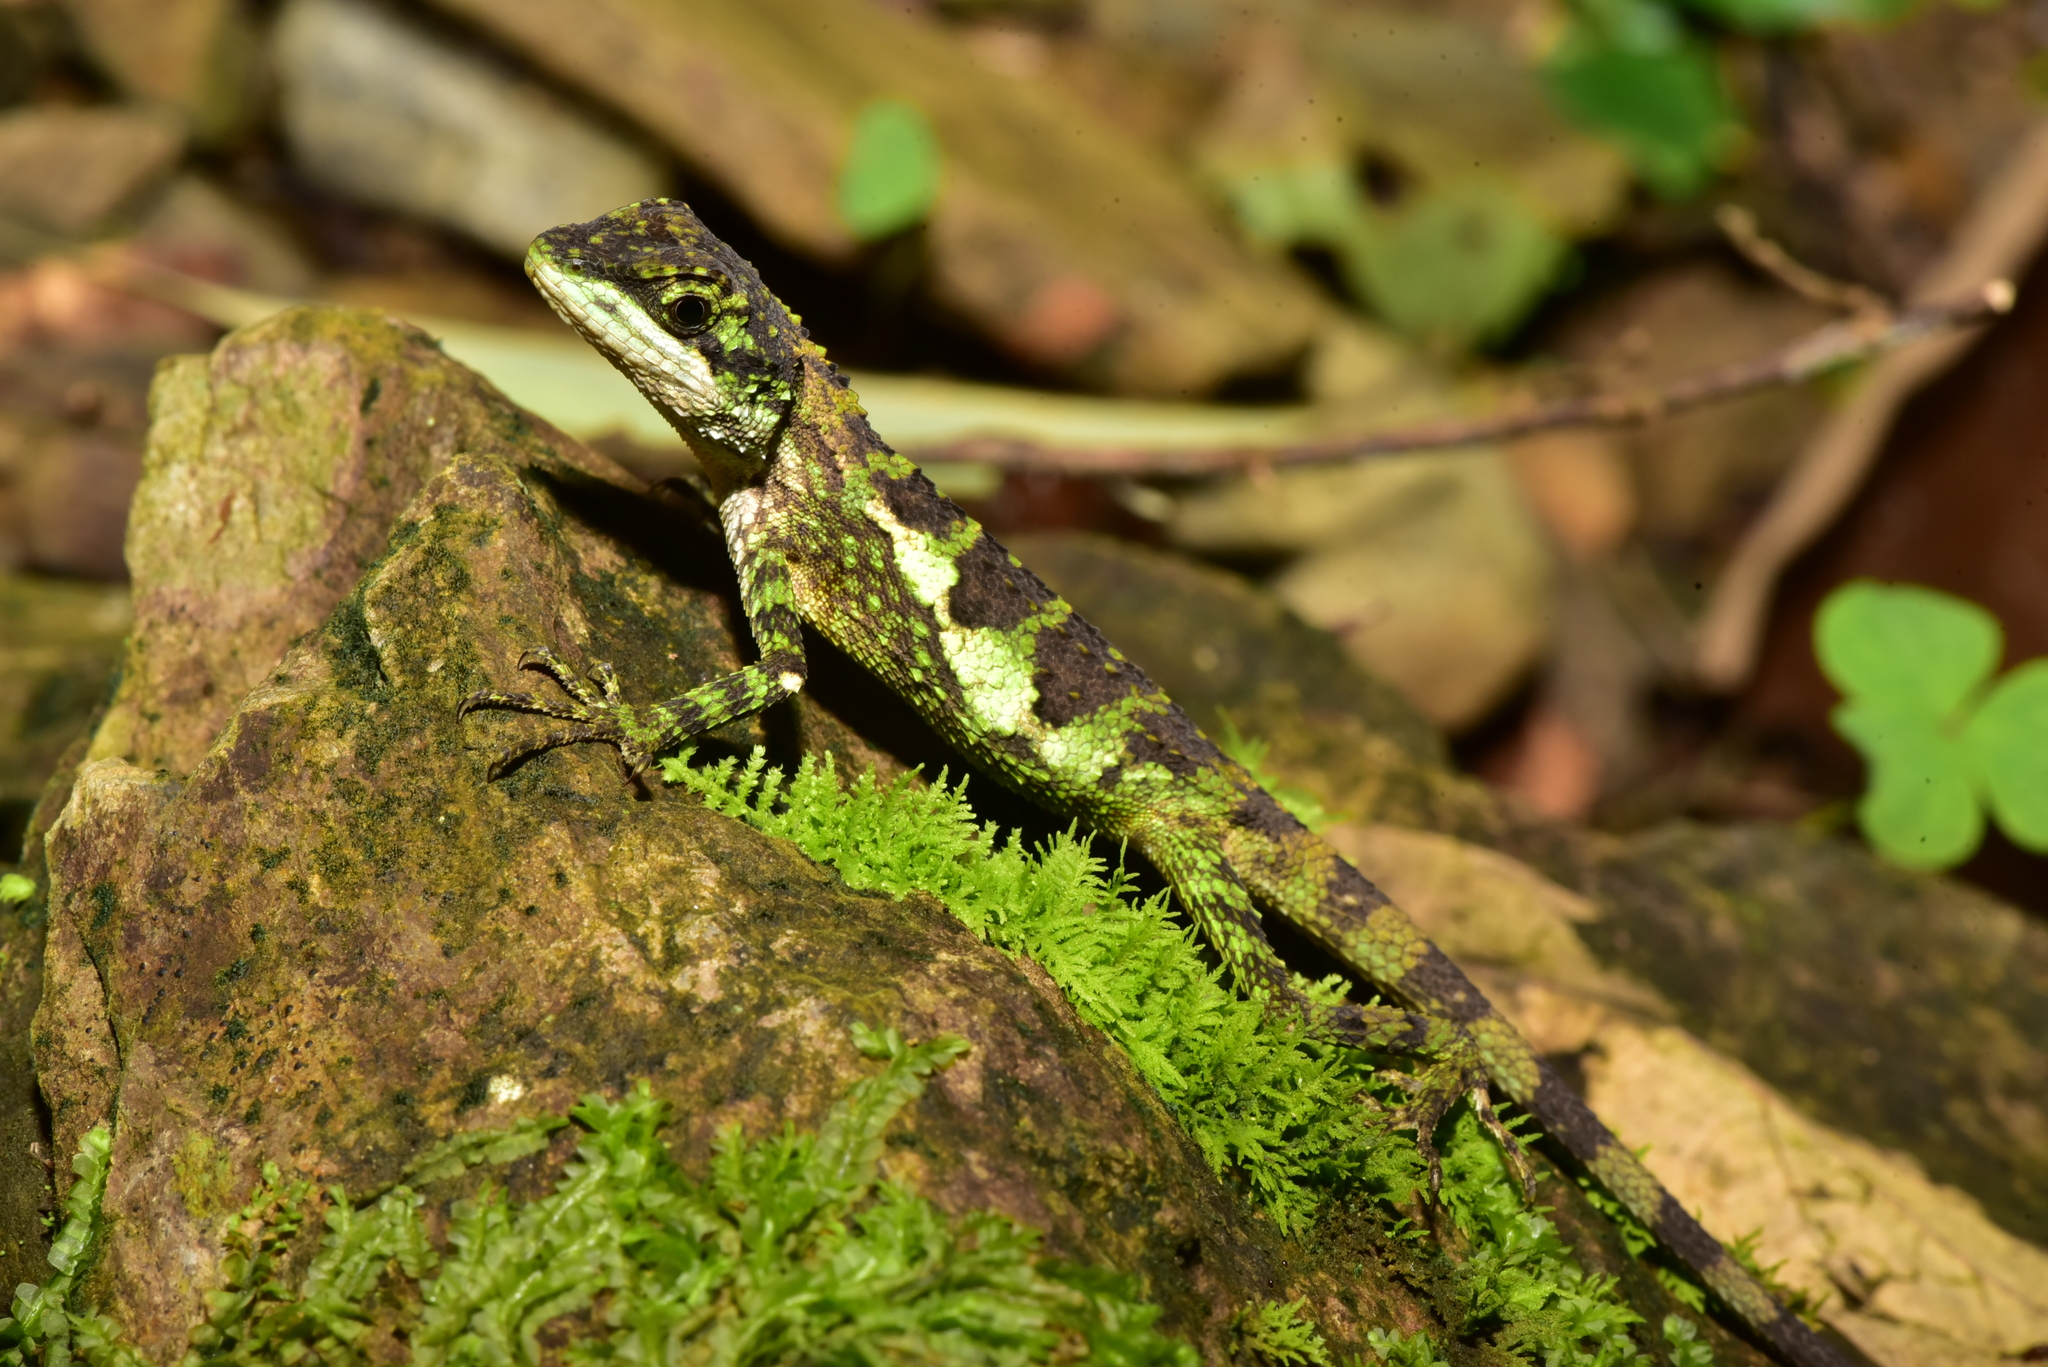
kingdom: Fungi
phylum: Basidiomycota
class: Agaricomycetes
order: Boletales
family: Diplocystidiaceae
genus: Diploderma
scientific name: Diploderma polygonatum
